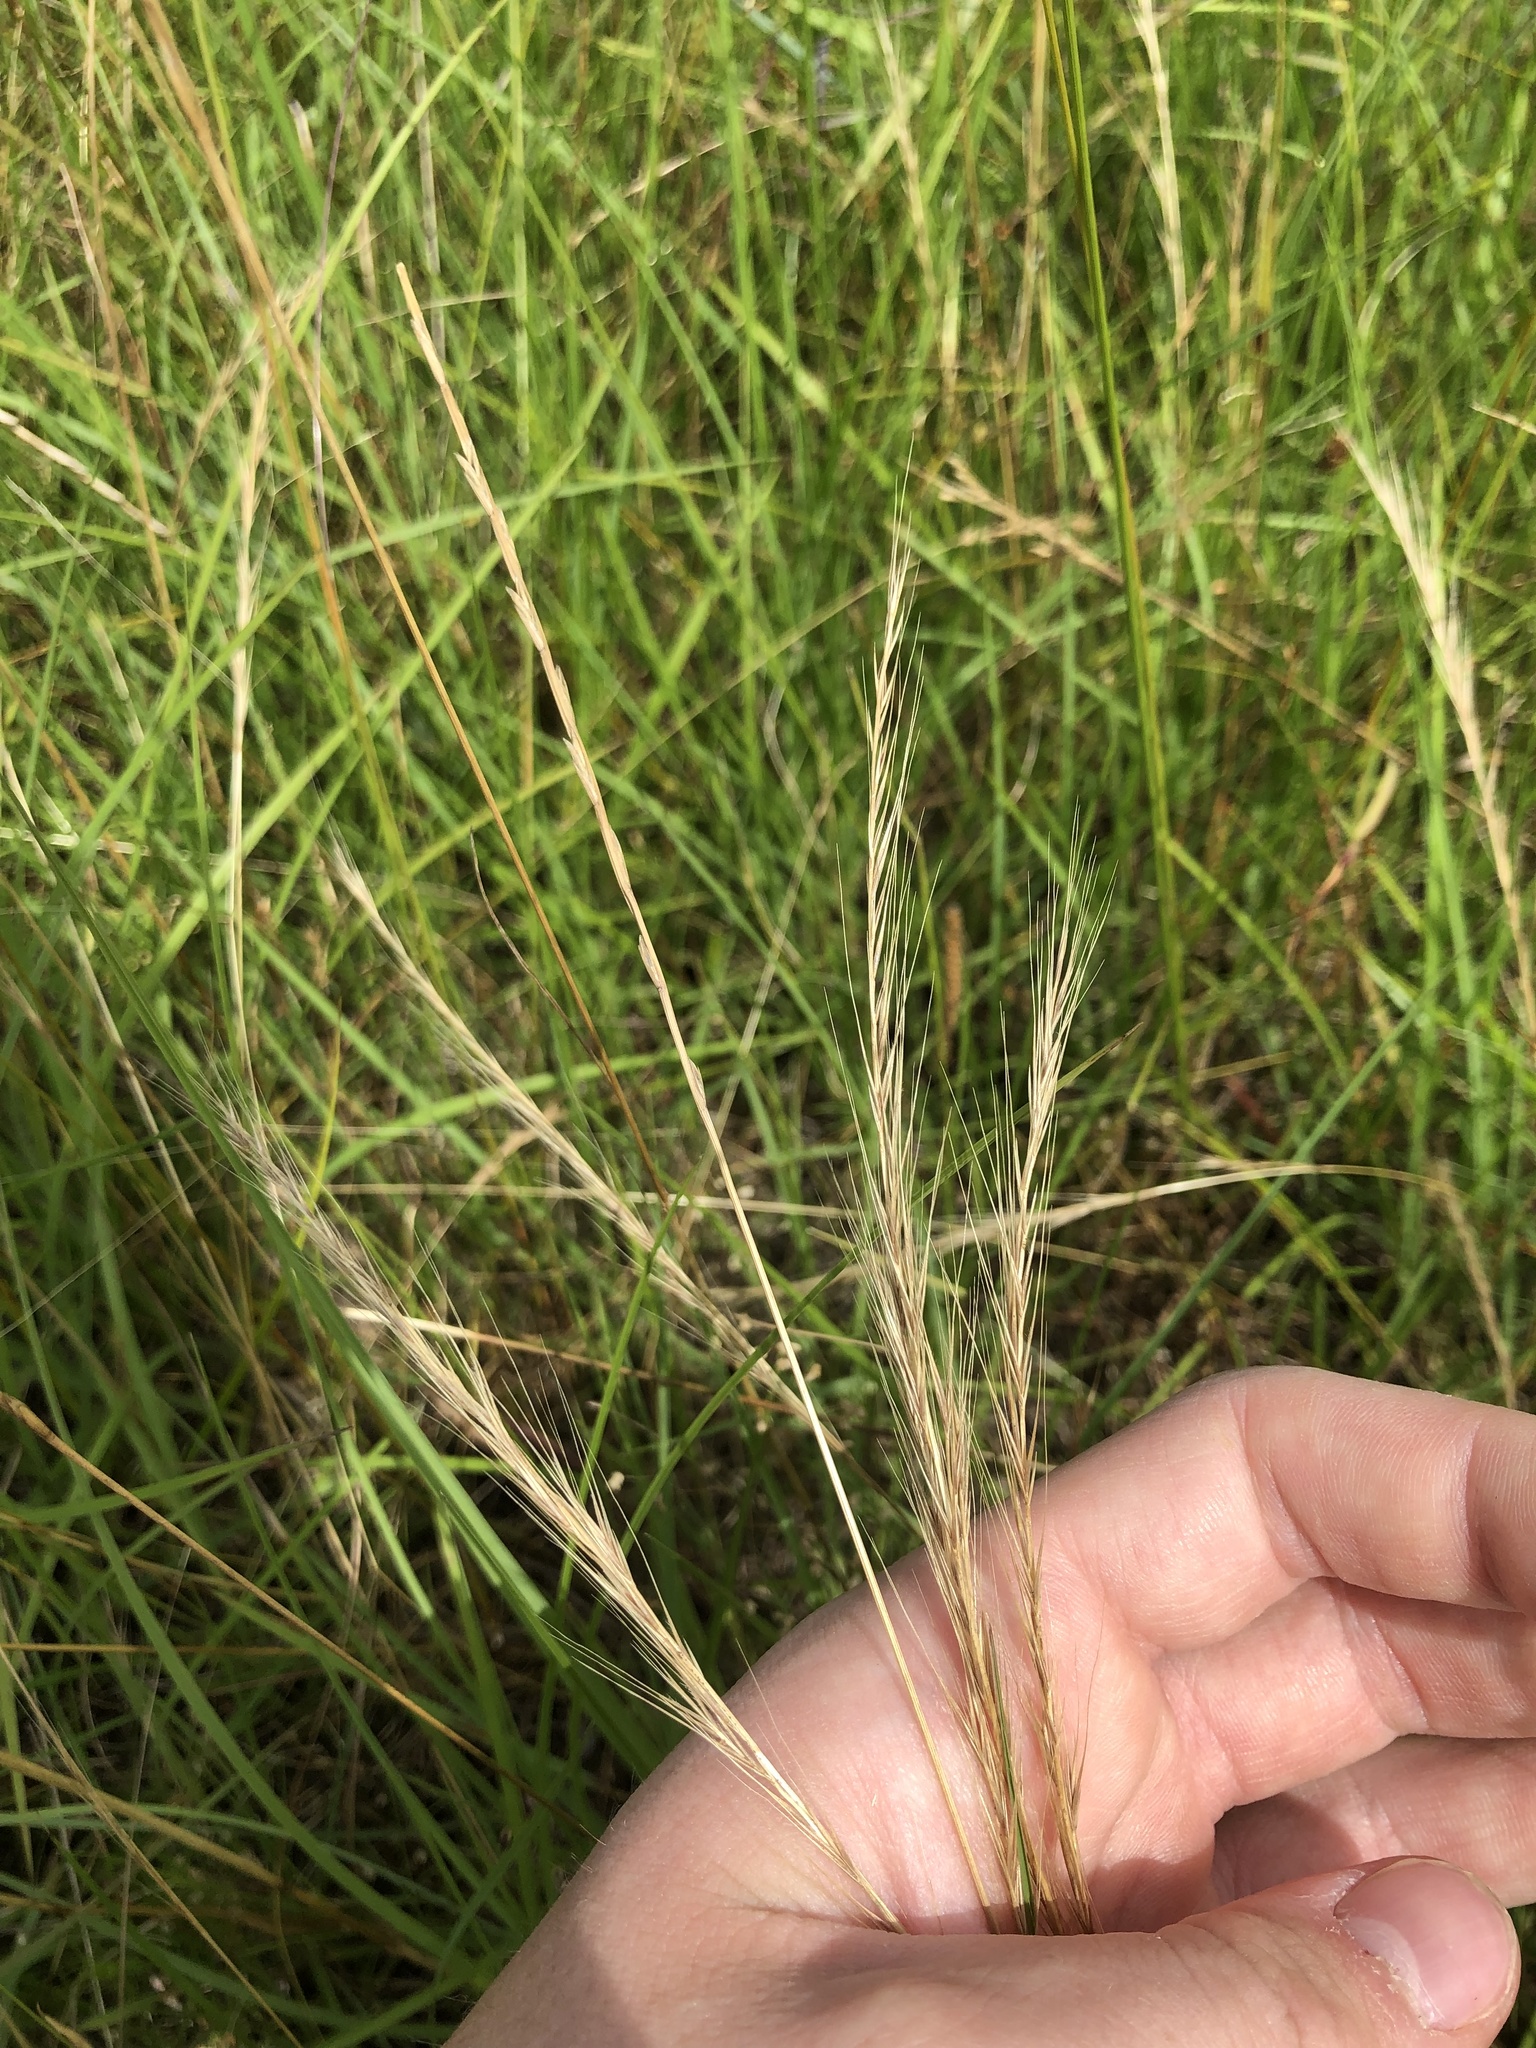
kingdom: Plantae
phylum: Tracheophyta
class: Liliopsida
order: Poales
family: Poaceae
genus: Festuca
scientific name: Festuca myuros
